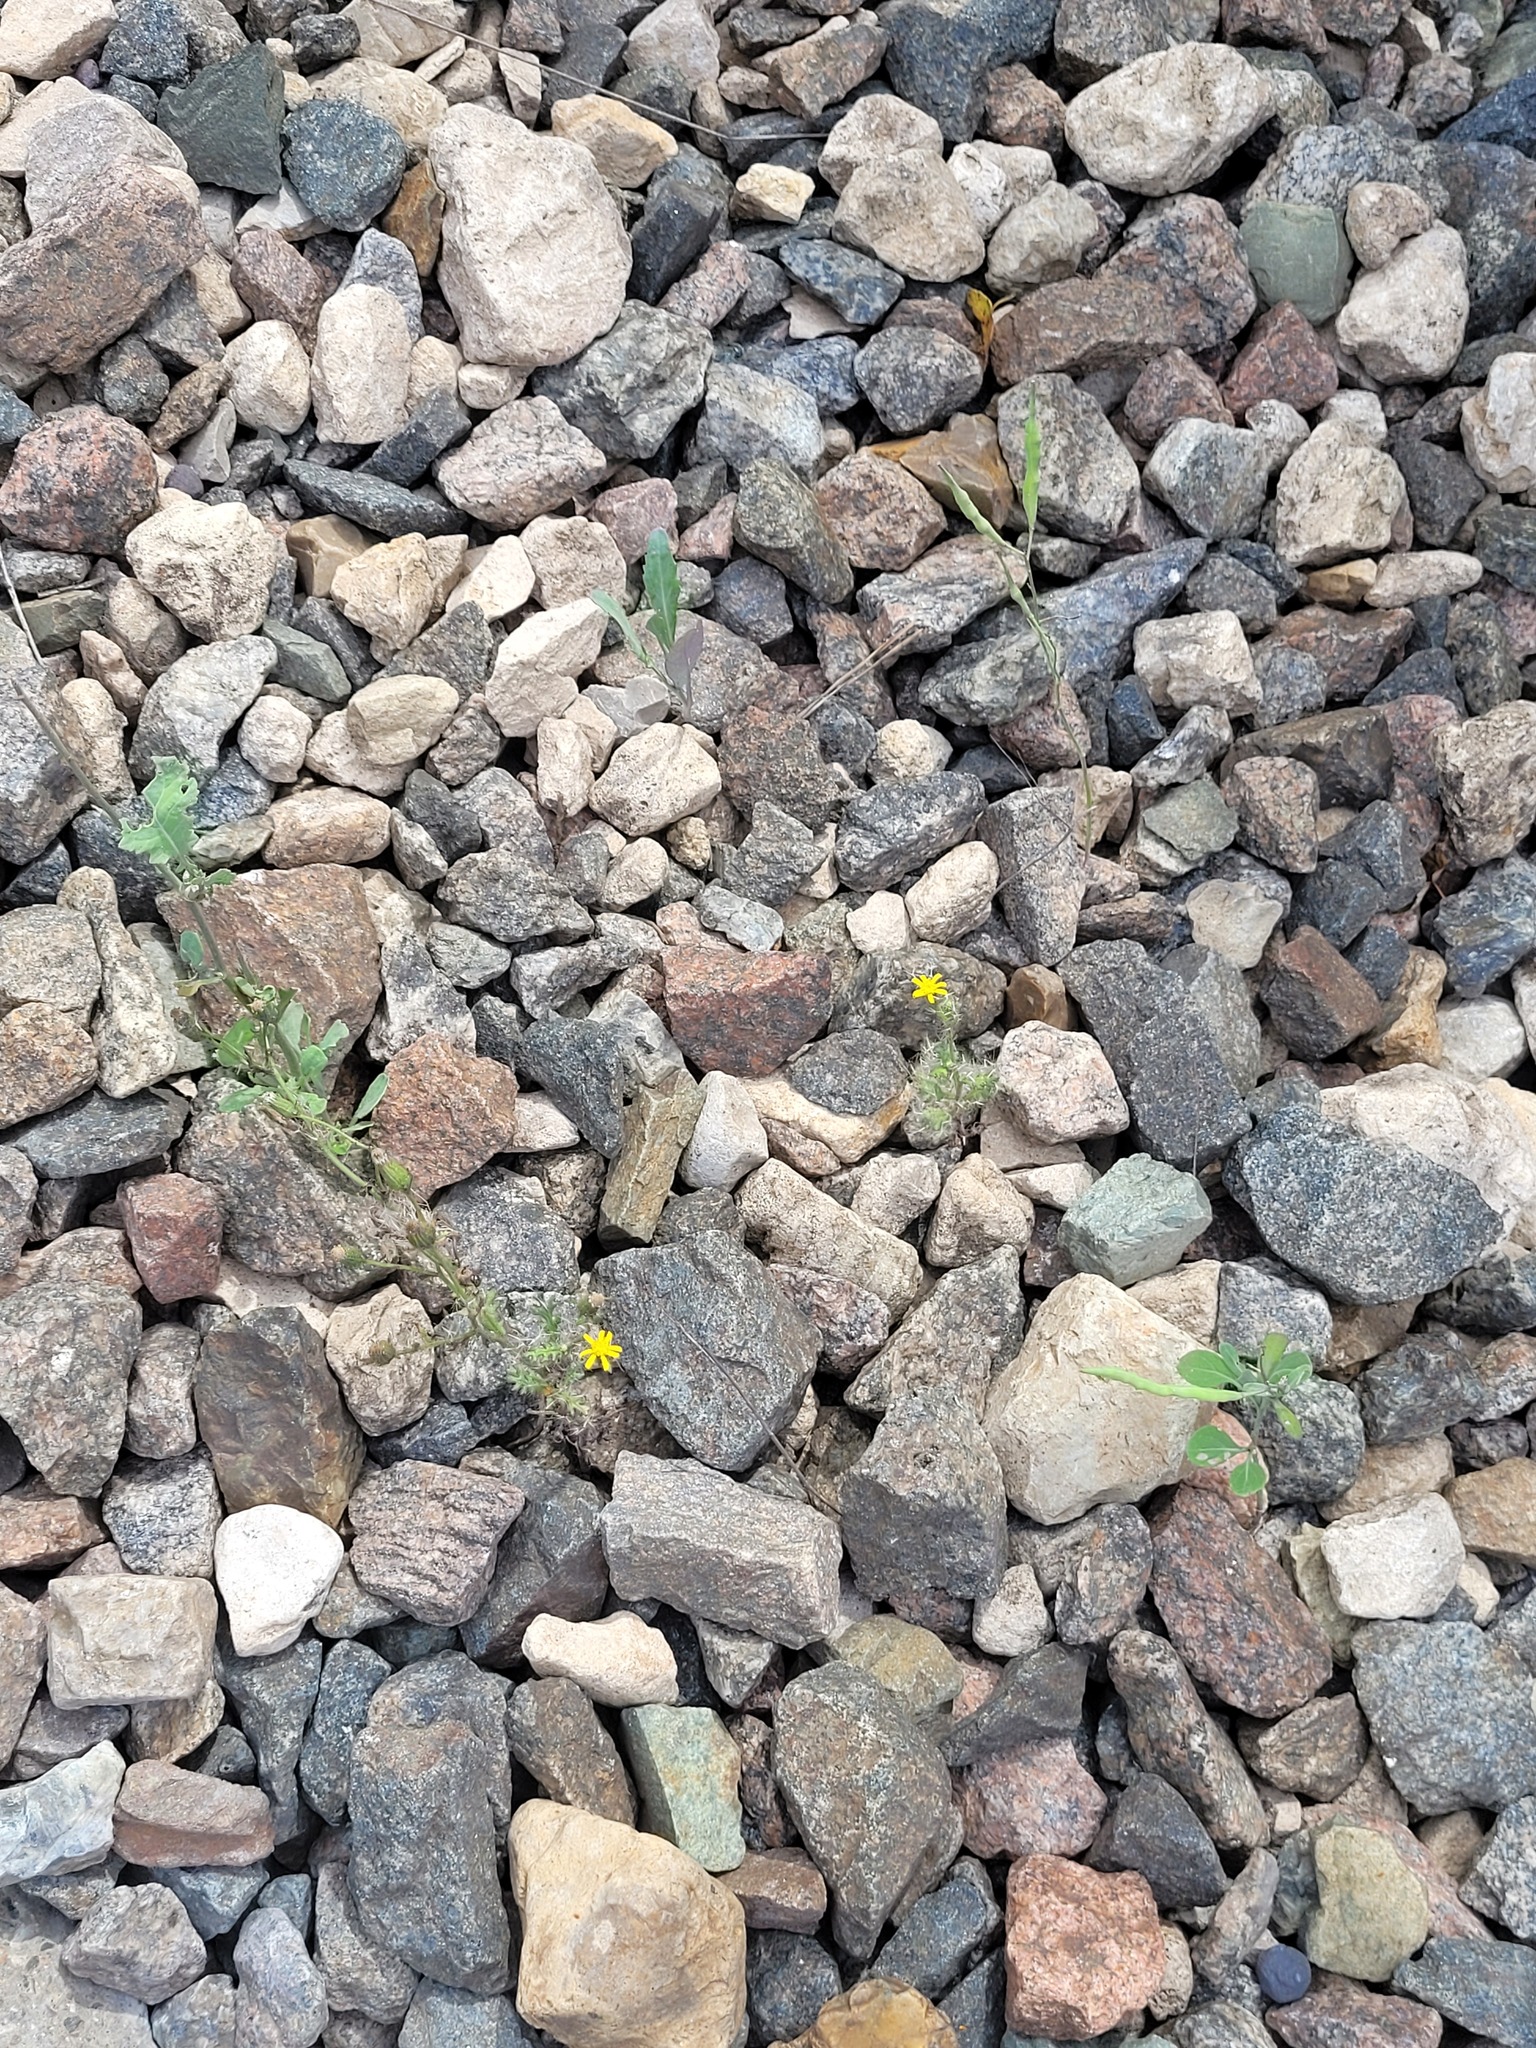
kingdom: Plantae
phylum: Tracheophyta
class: Magnoliopsida
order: Asterales
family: Asteraceae
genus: Senecio
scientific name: Senecio viscosus
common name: Sticky groundsel
